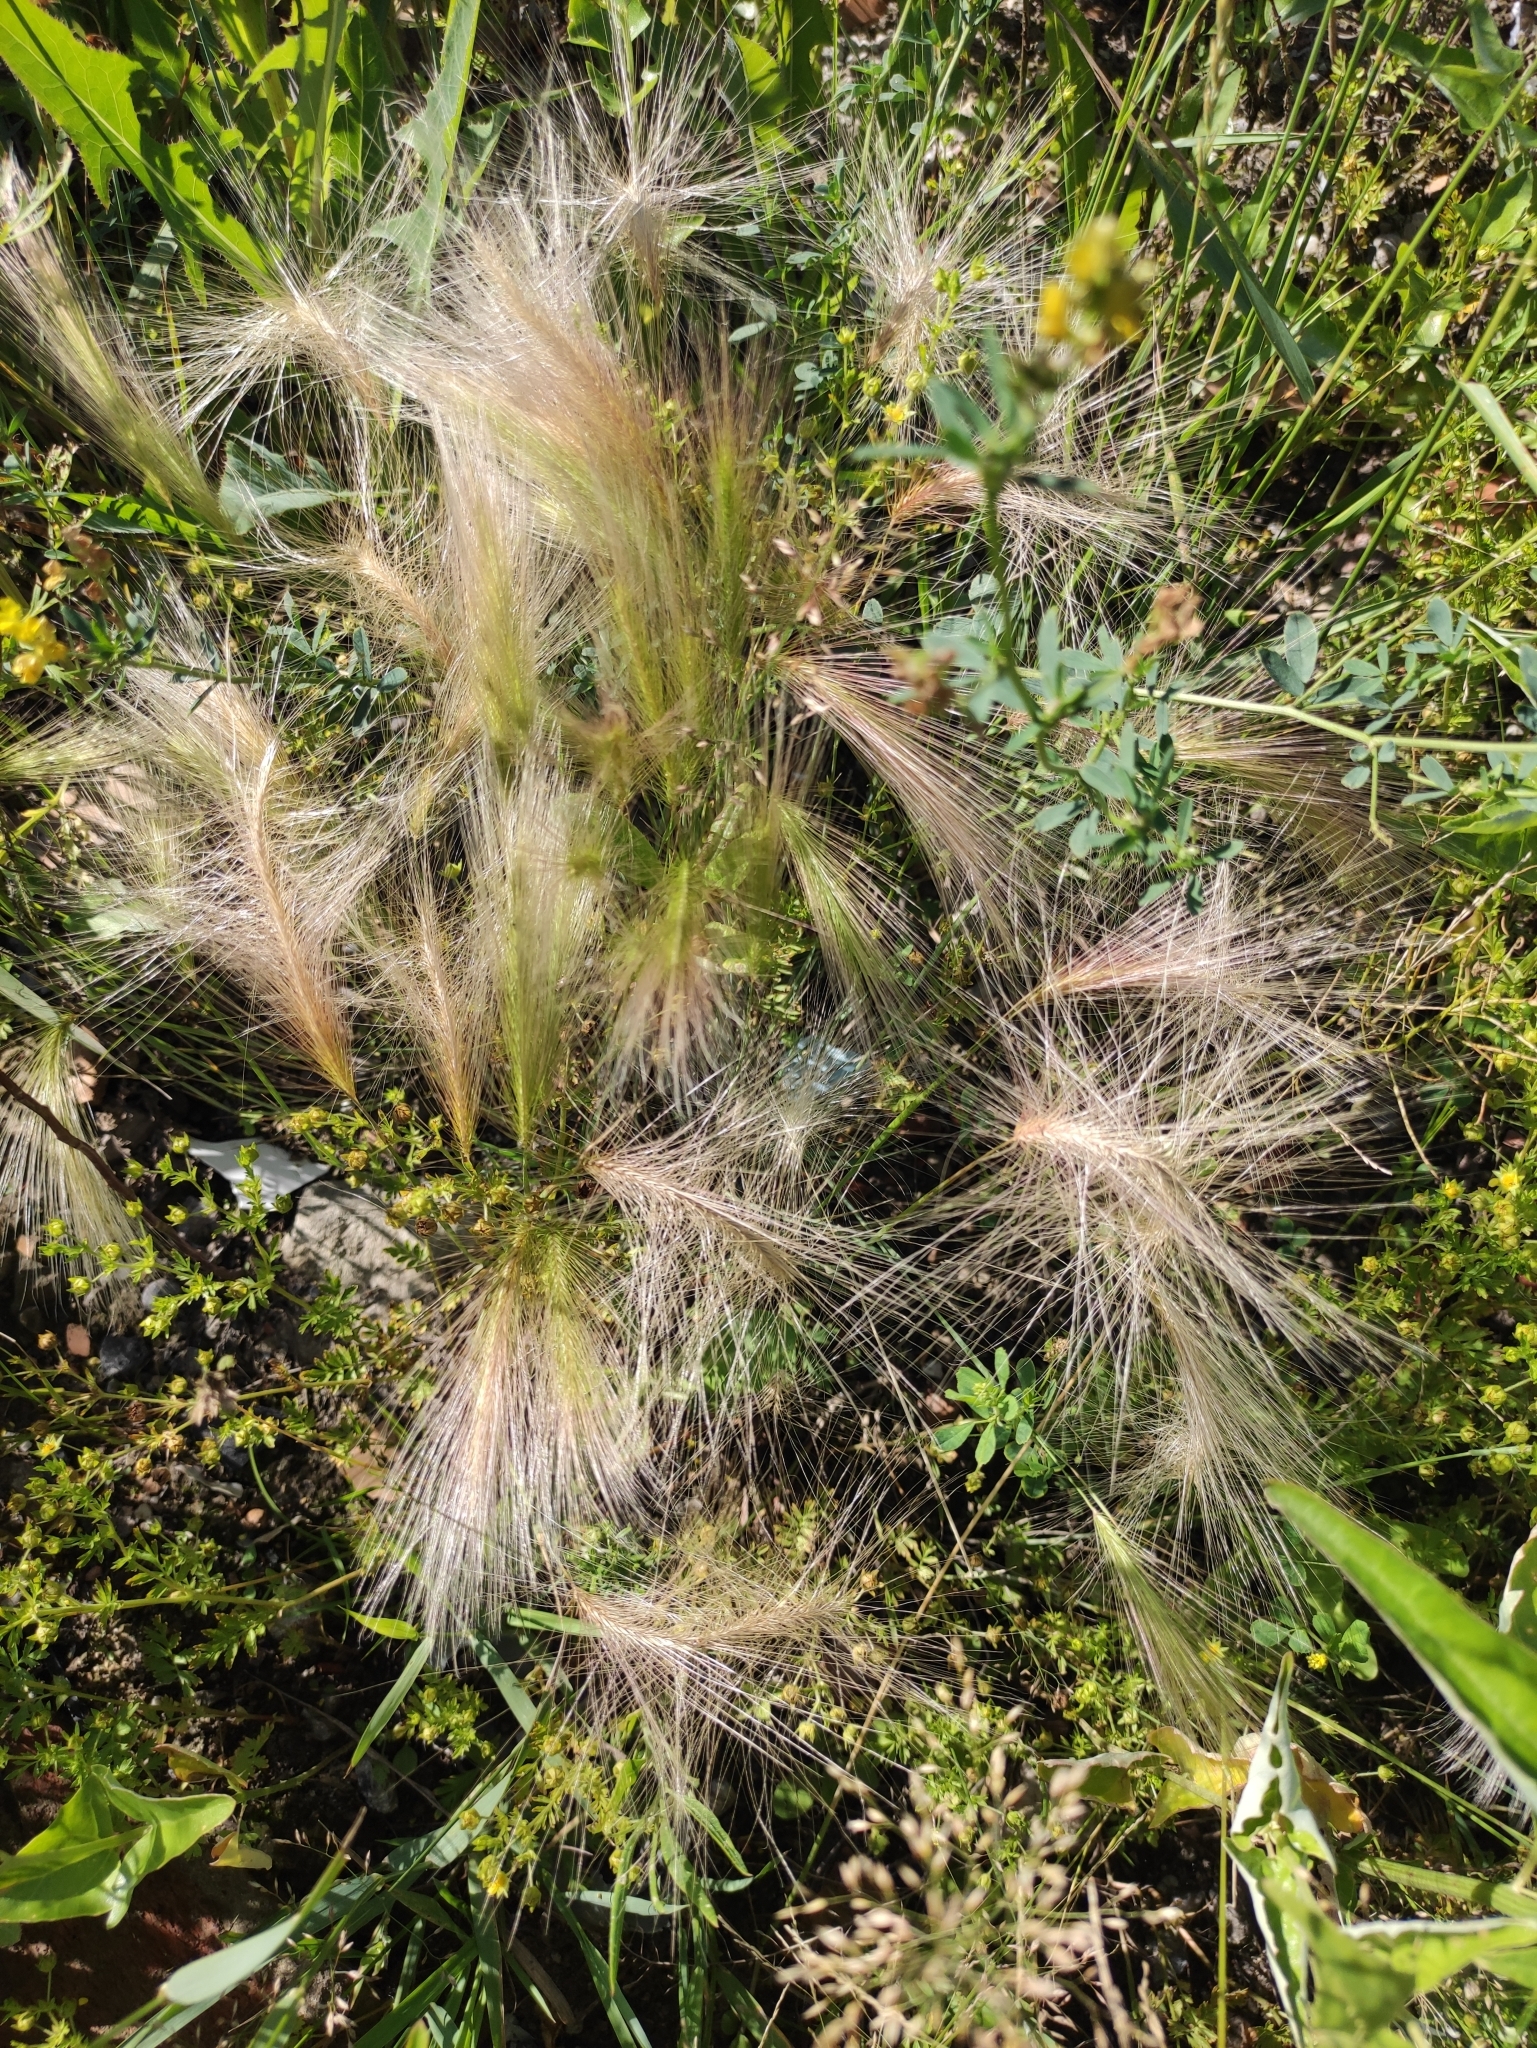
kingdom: Plantae
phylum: Tracheophyta
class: Liliopsida
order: Poales
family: Poaceae
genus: Hordeum
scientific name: Hordeum jubatum
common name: Foxtail barley
